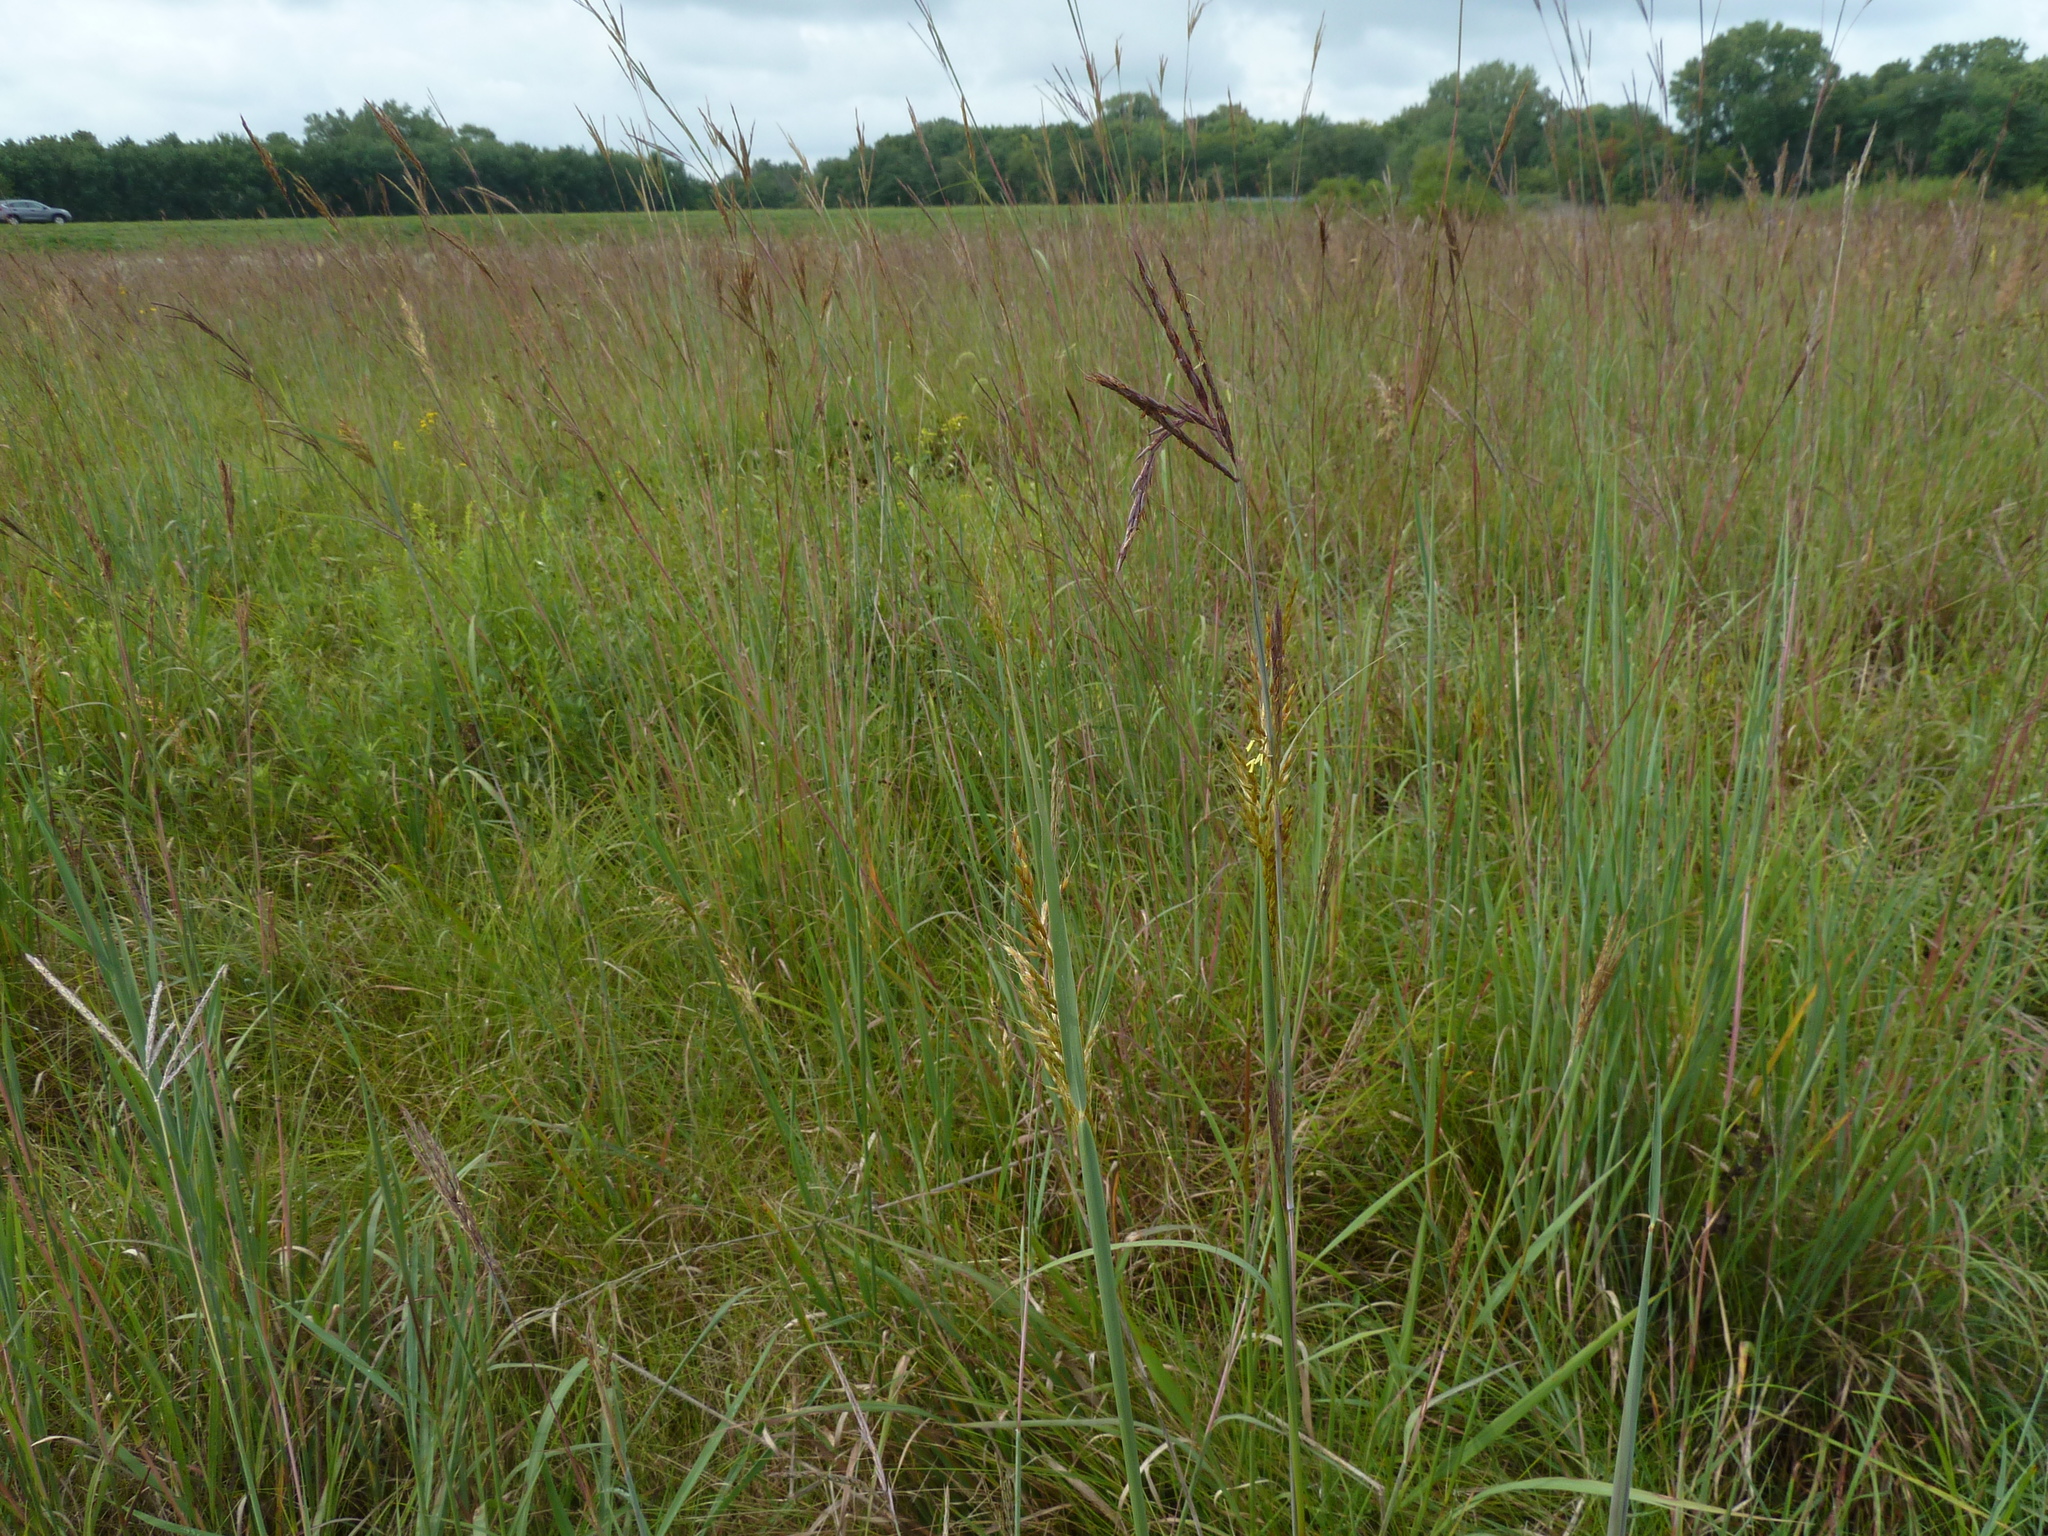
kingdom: Plantae
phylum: Tracheophyta
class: Liliopsida
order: Poales
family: Poaceae
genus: Andropogon
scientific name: Andropogon gerardi
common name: Big bluestem
